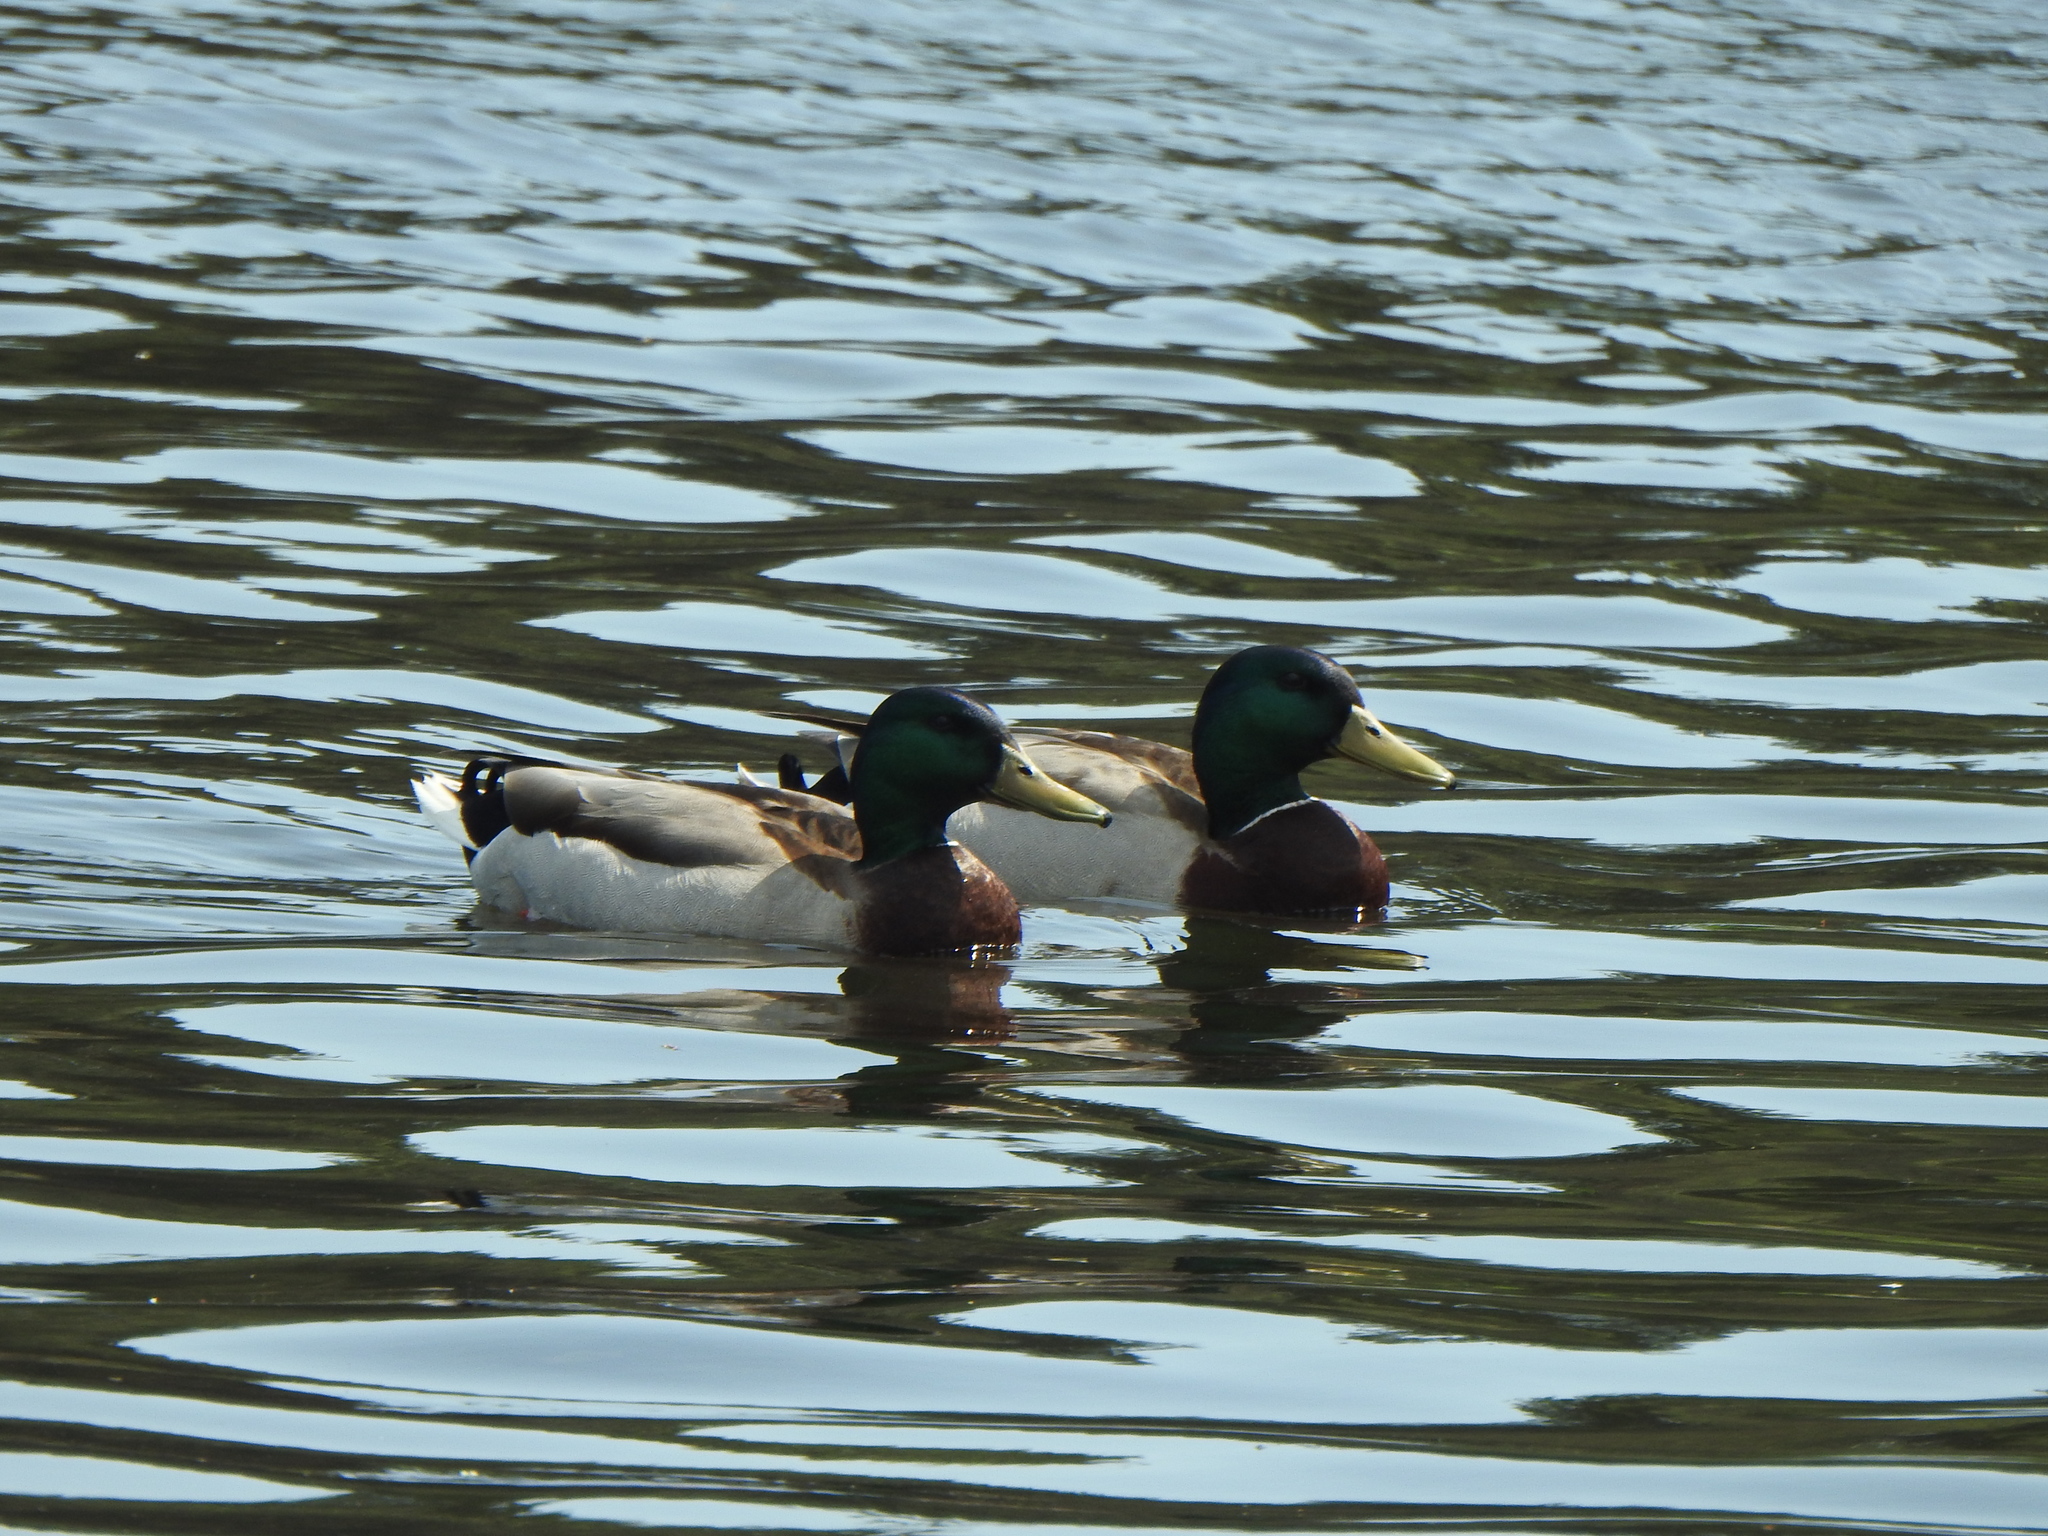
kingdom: Animalia
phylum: Chordata
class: Aves
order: Anseriformes
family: Anatidae
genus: Anas
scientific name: Anas platyrhynchos
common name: Mallard
